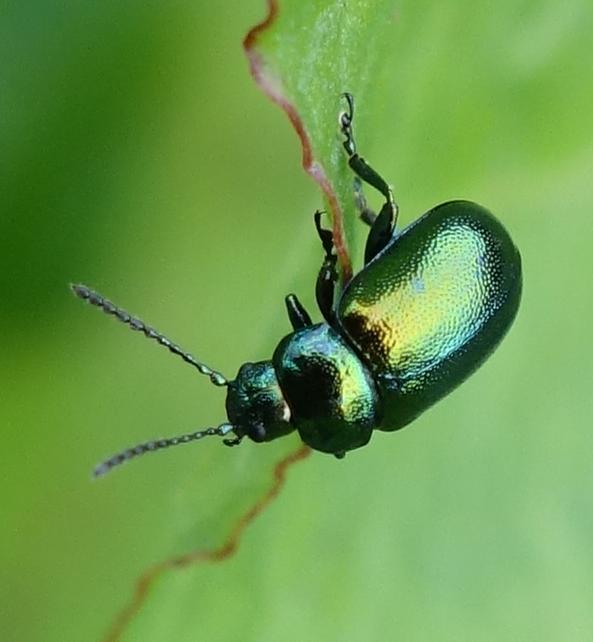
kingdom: Animalia
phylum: Arthropoda
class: Insecta
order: Coleoptera
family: Chrysomelidae
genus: Gastrophysa
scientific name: Gastrophysa viridula
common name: Green dock beetle
